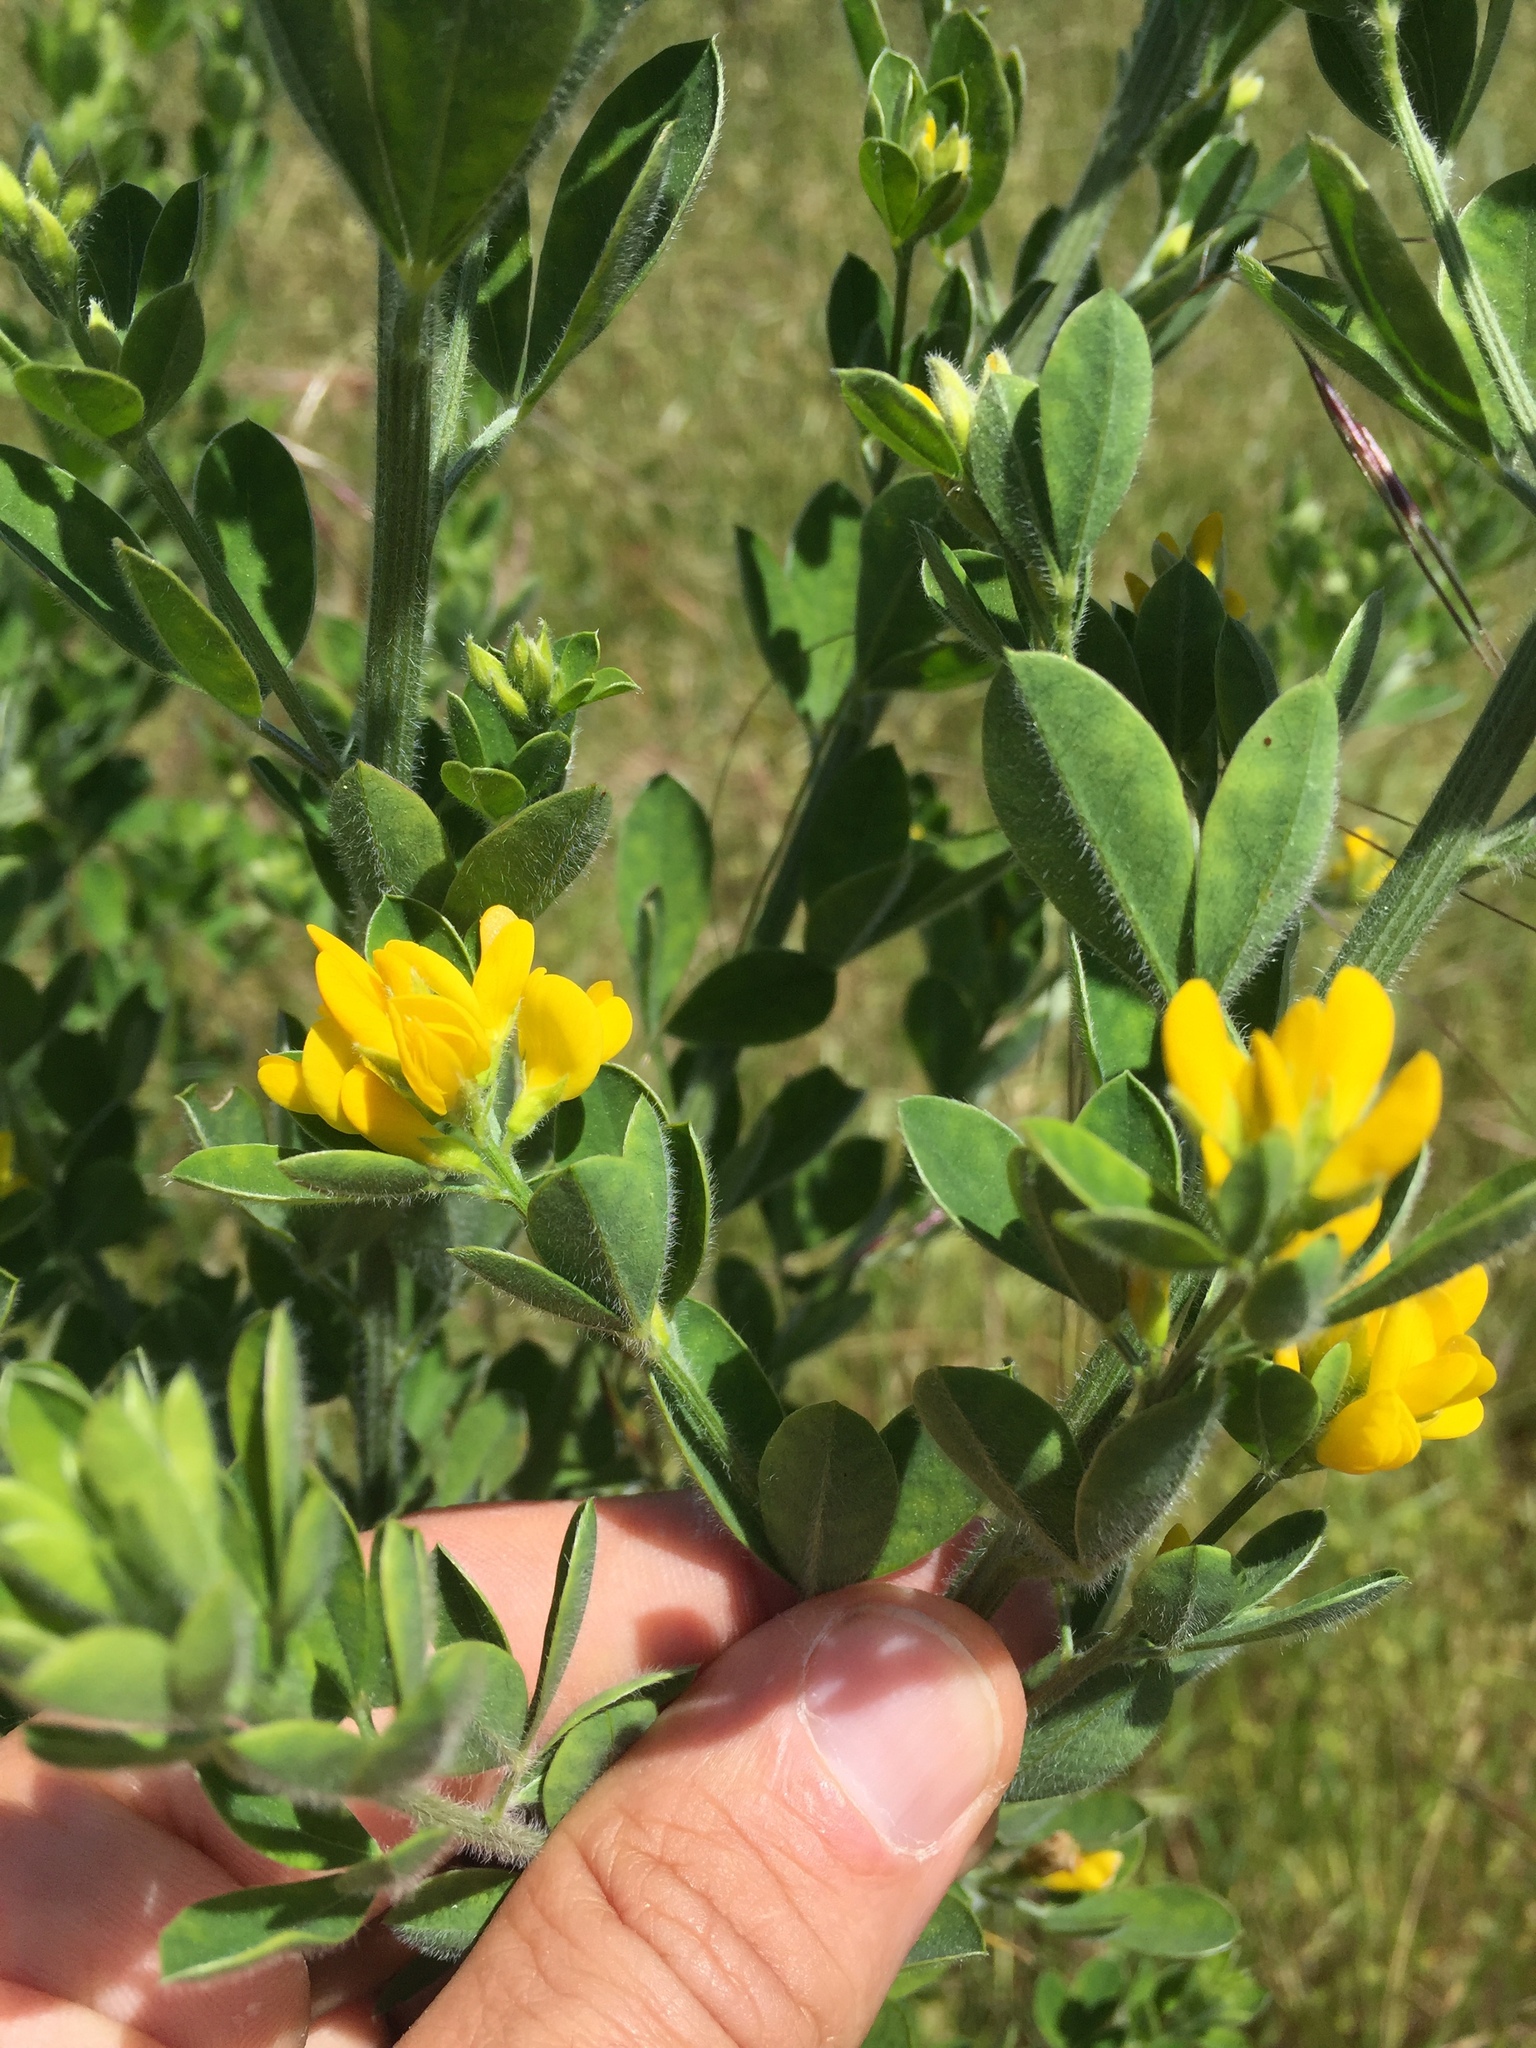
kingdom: Plantae
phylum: Tracheophyta
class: Magnoliopsida
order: Fabales
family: Fabaceae
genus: Genista
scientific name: Genista monspessulana
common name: Montpellier broom
